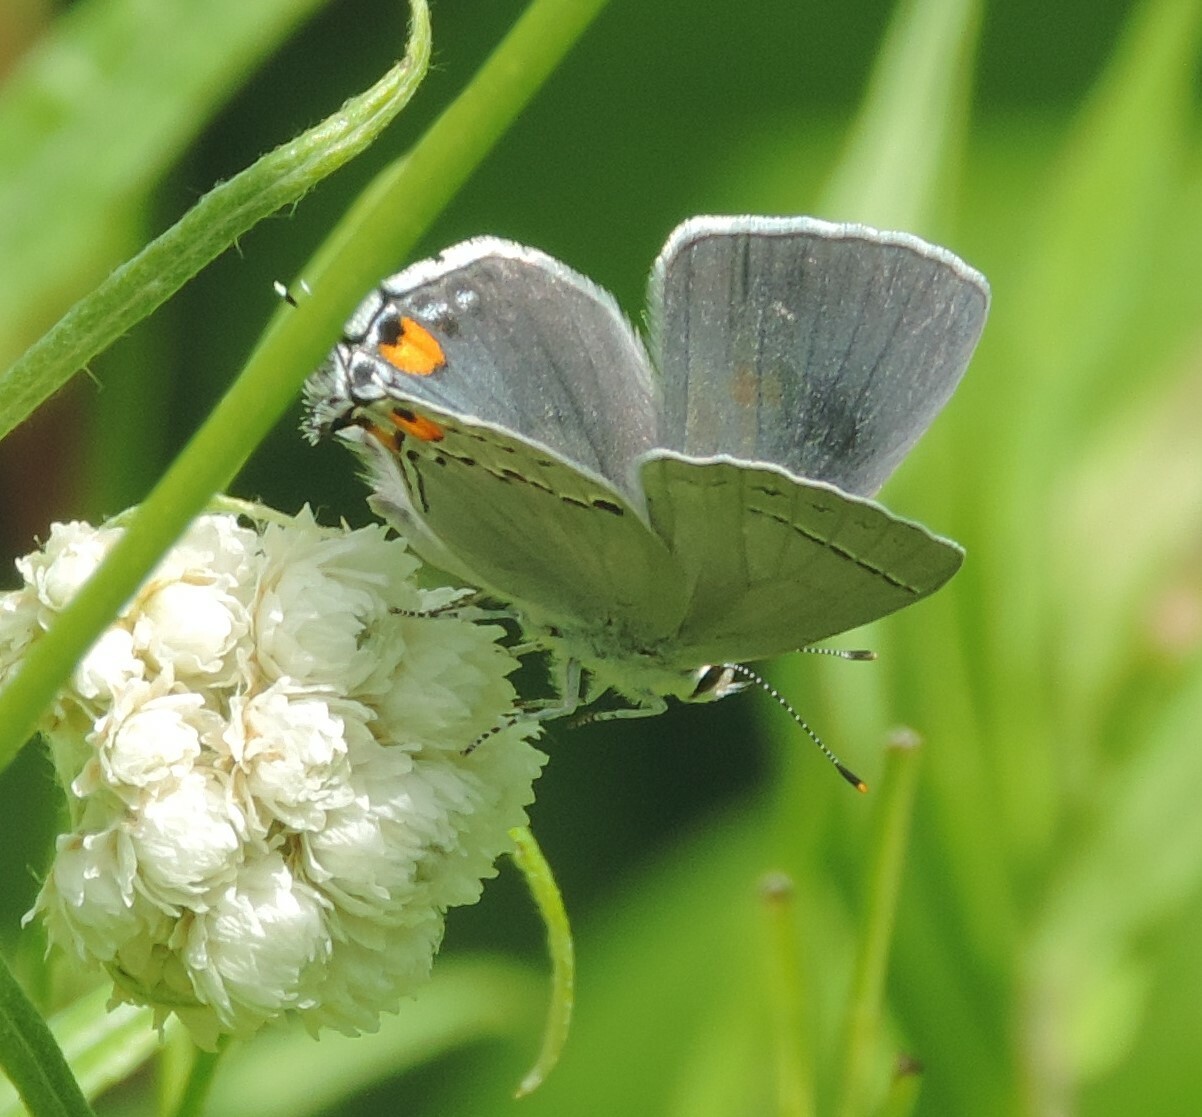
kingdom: Animalia
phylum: Arthropoda
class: Insecta
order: Lepidoptera
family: Lycaenidae
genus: Strymon
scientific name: Strymon melinus
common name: Gray hairstreak
